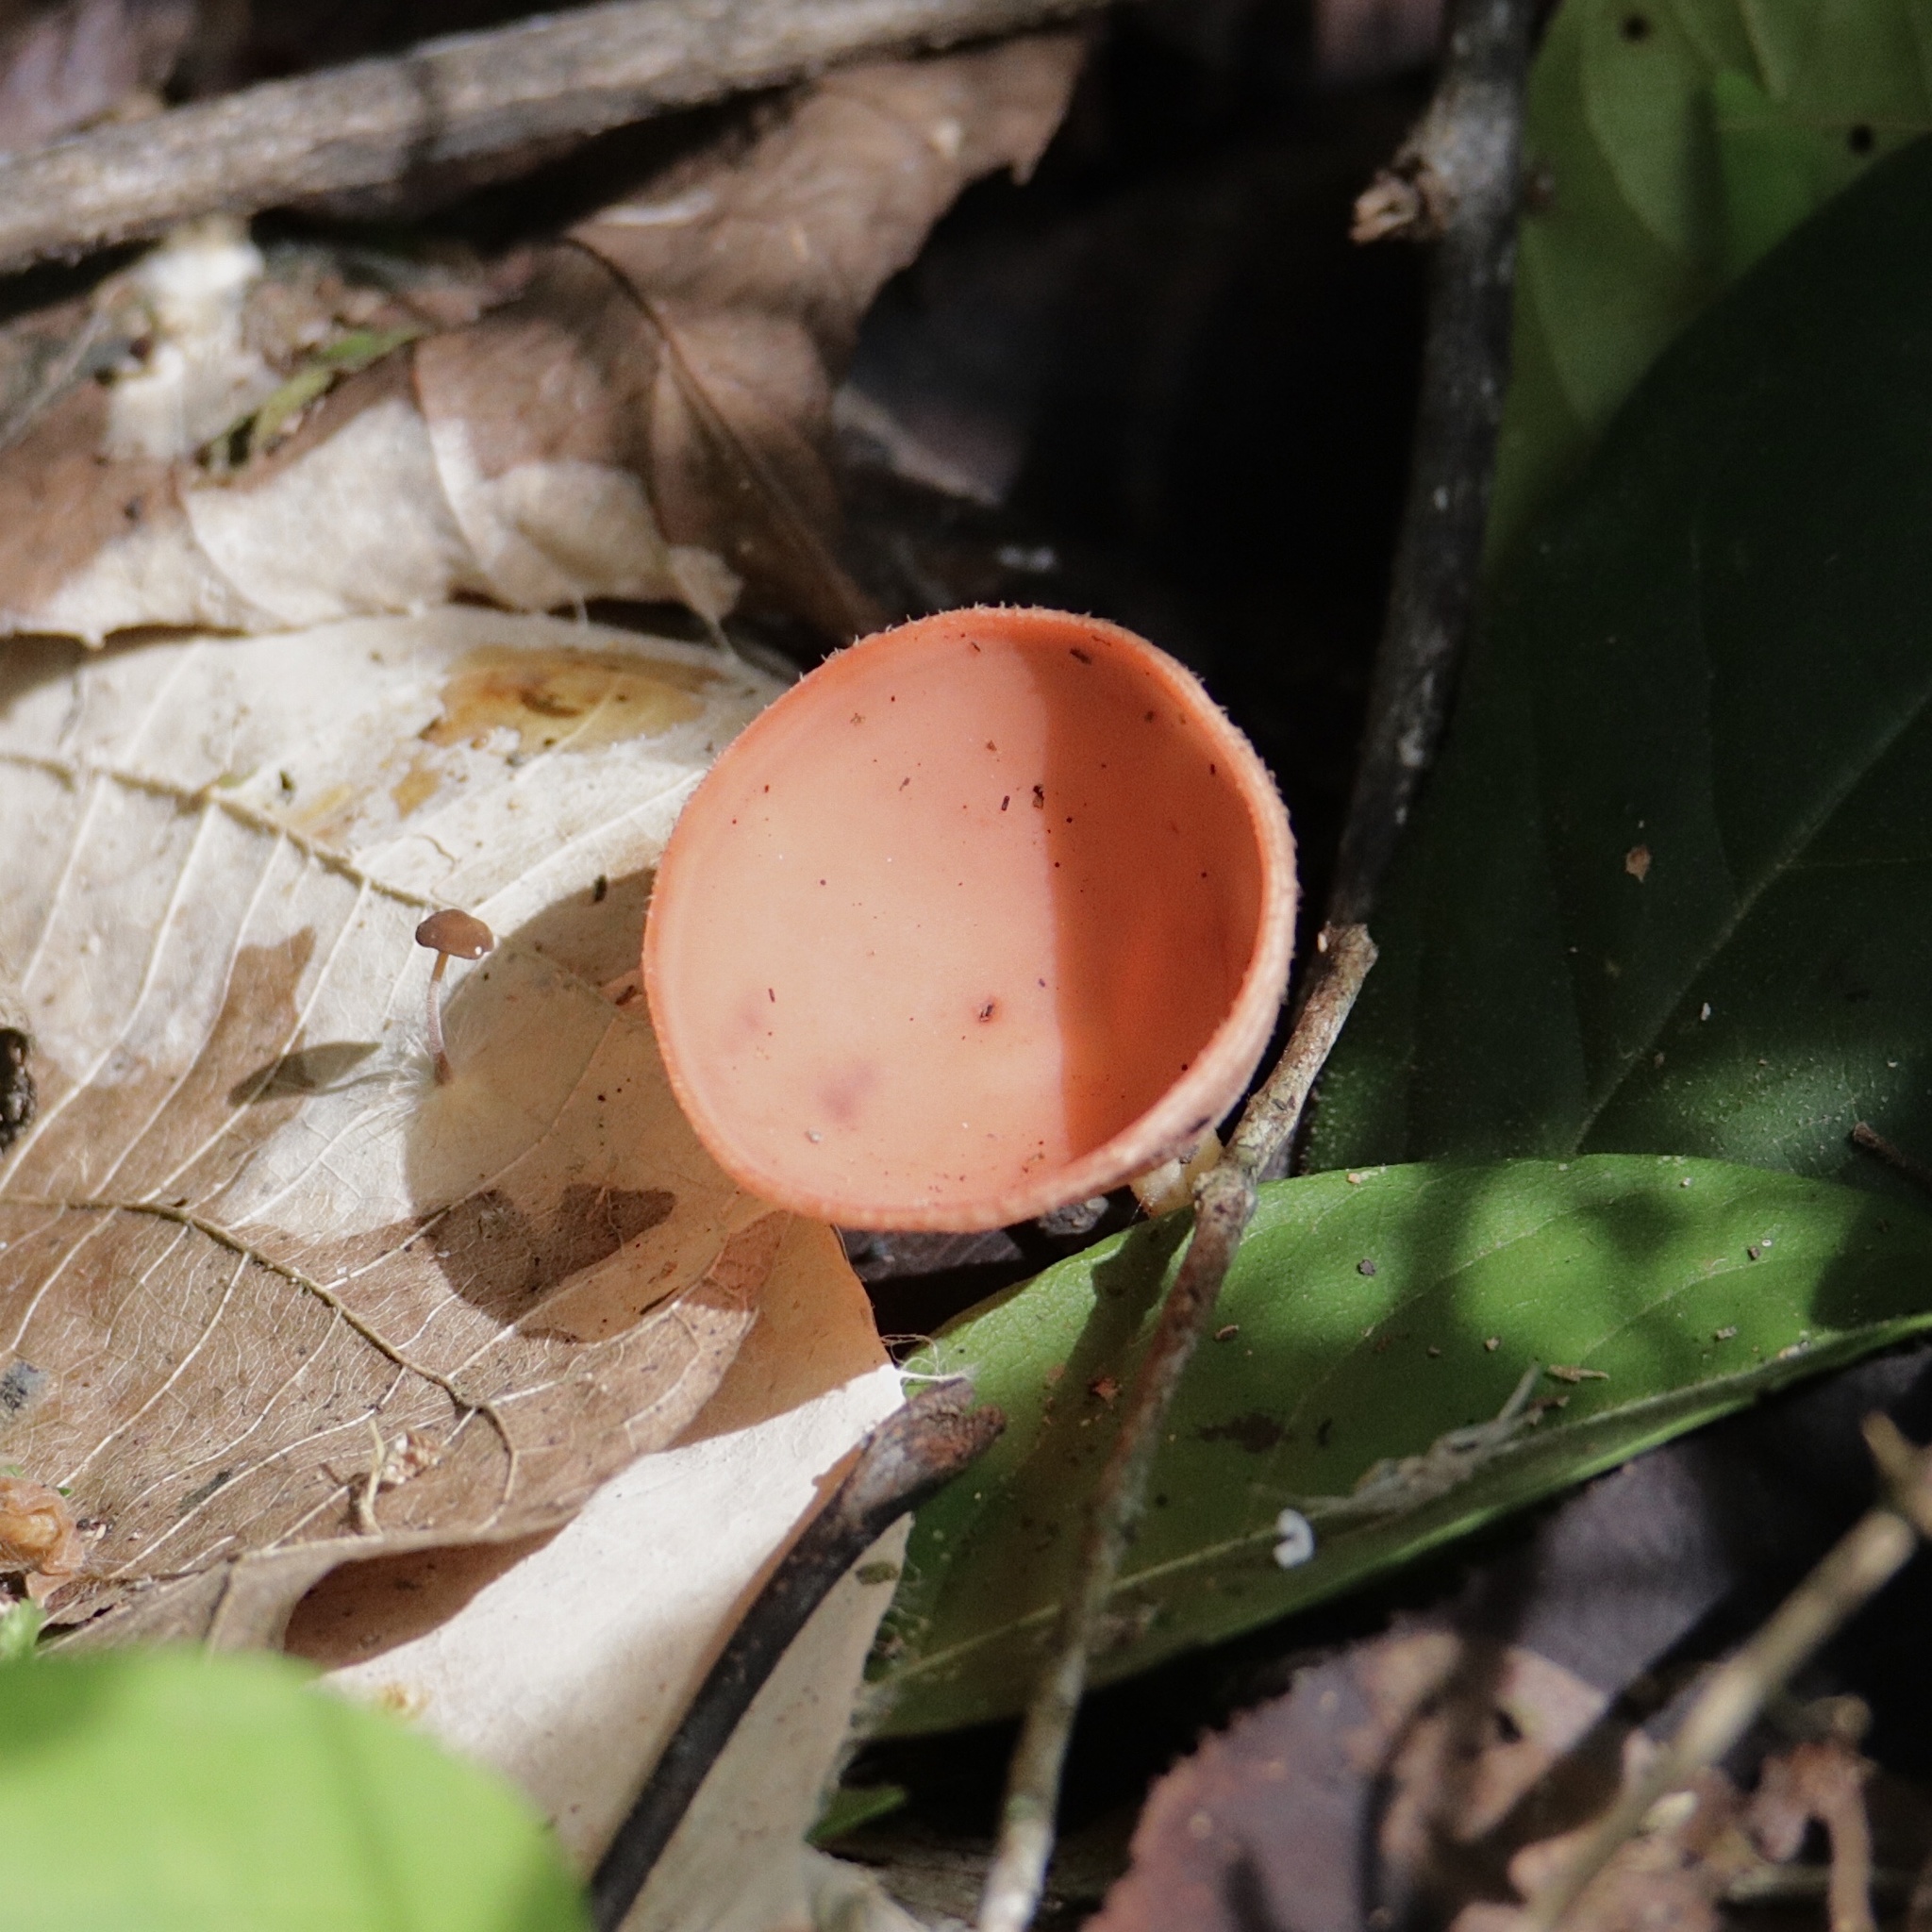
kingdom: Fungi
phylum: Ascomycota
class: Pezizomycetes
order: Pezizales
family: Sarcoscyphaceae
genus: Cookeina
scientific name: Cookeina speciosa
